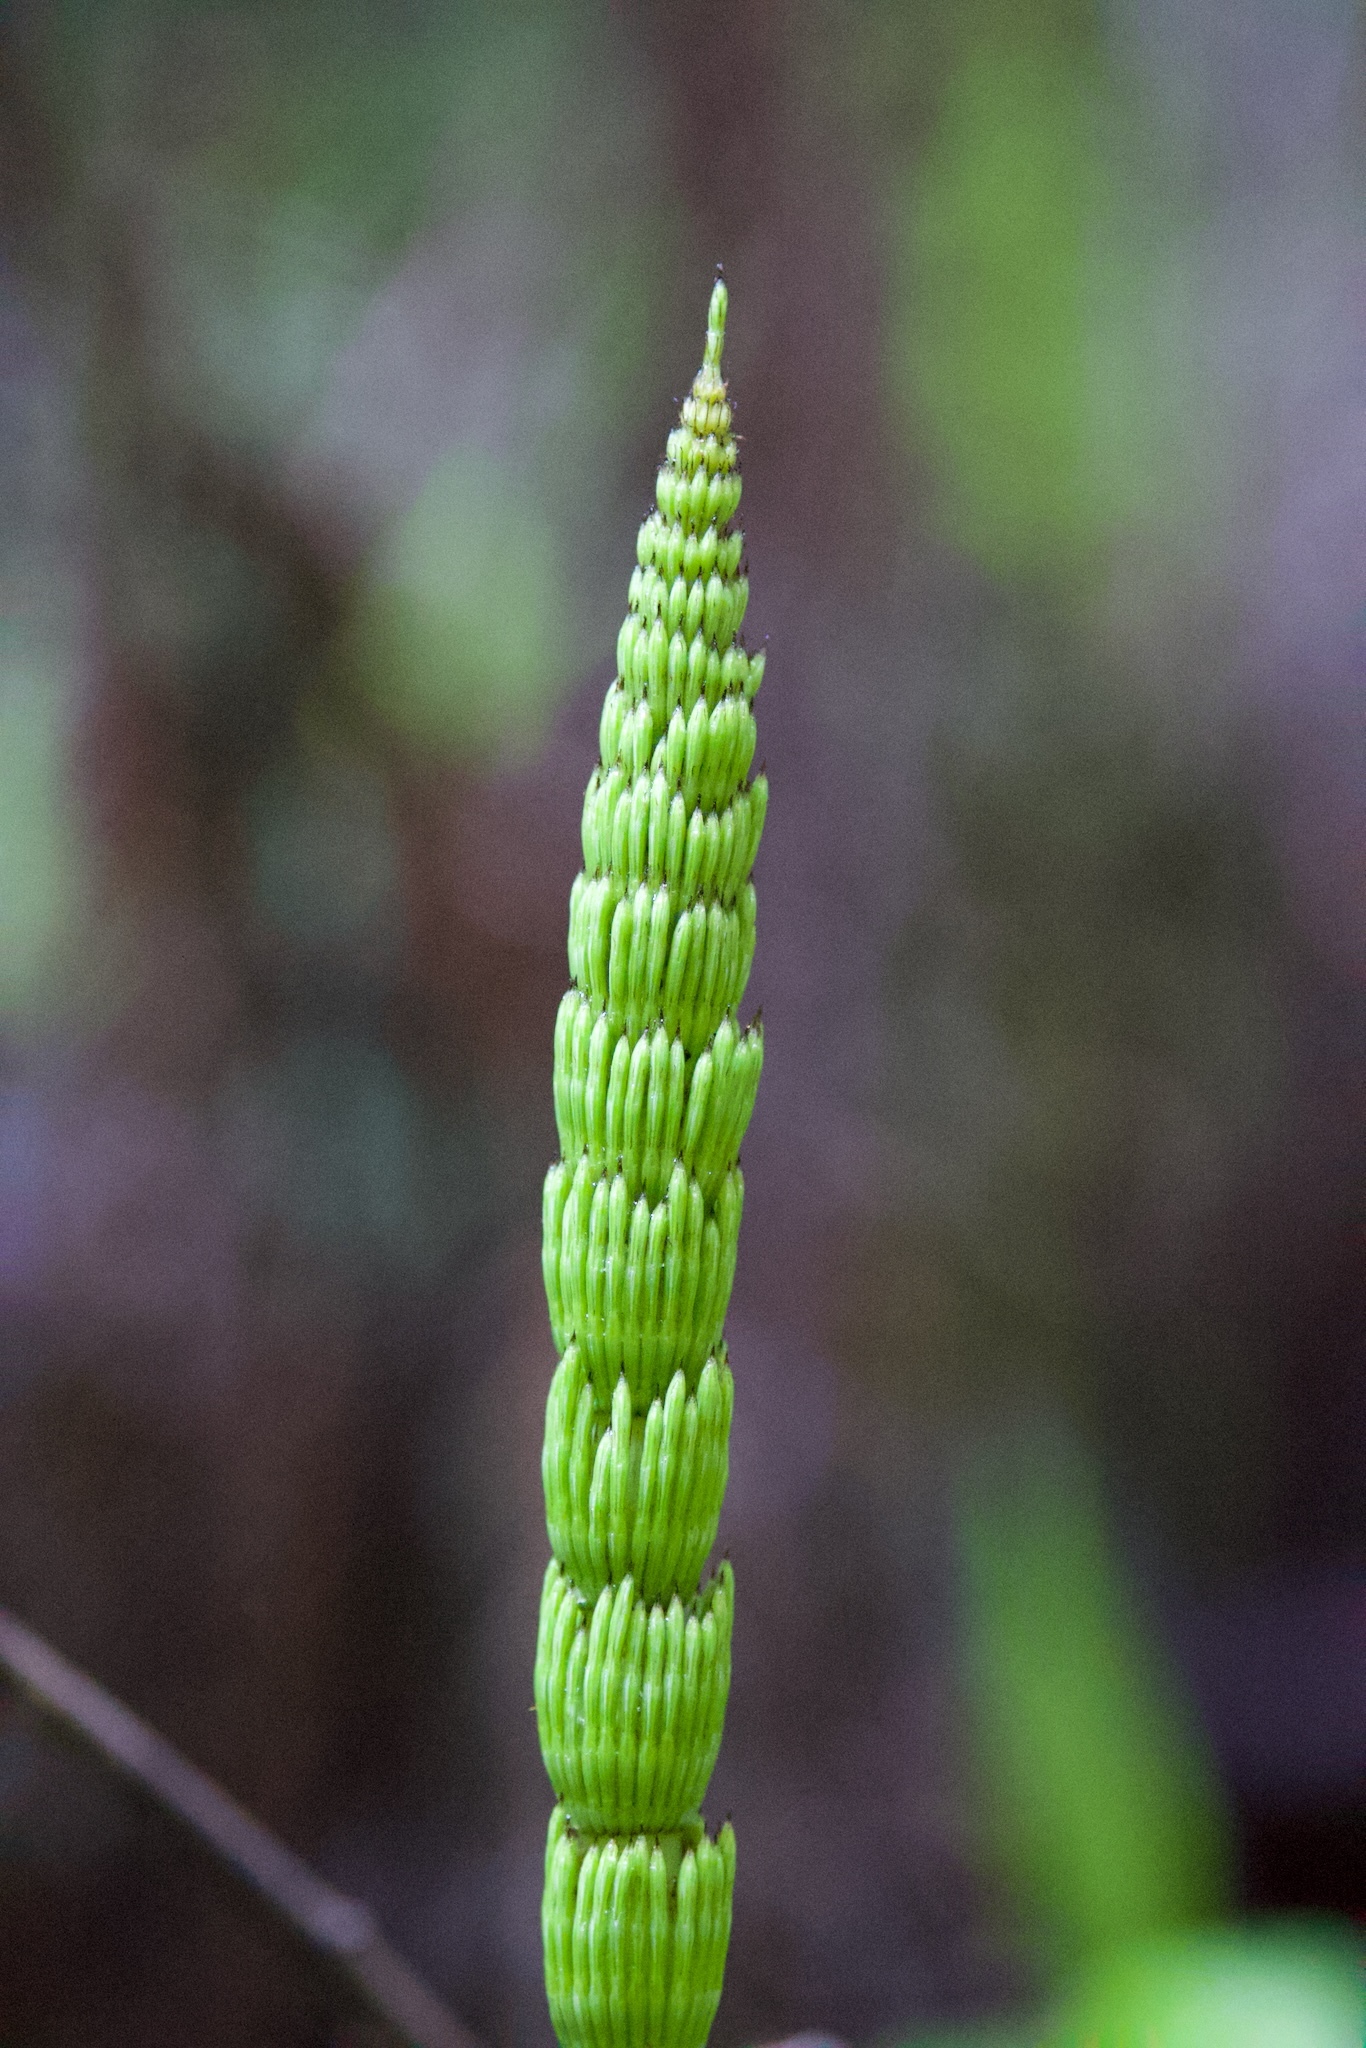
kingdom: Plantae
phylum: Tracheophyta
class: Polypodiopsida
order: Equisetales
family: Equisetaceae
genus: Equisetum
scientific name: Equisetum telmateia
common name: Great horsetail
